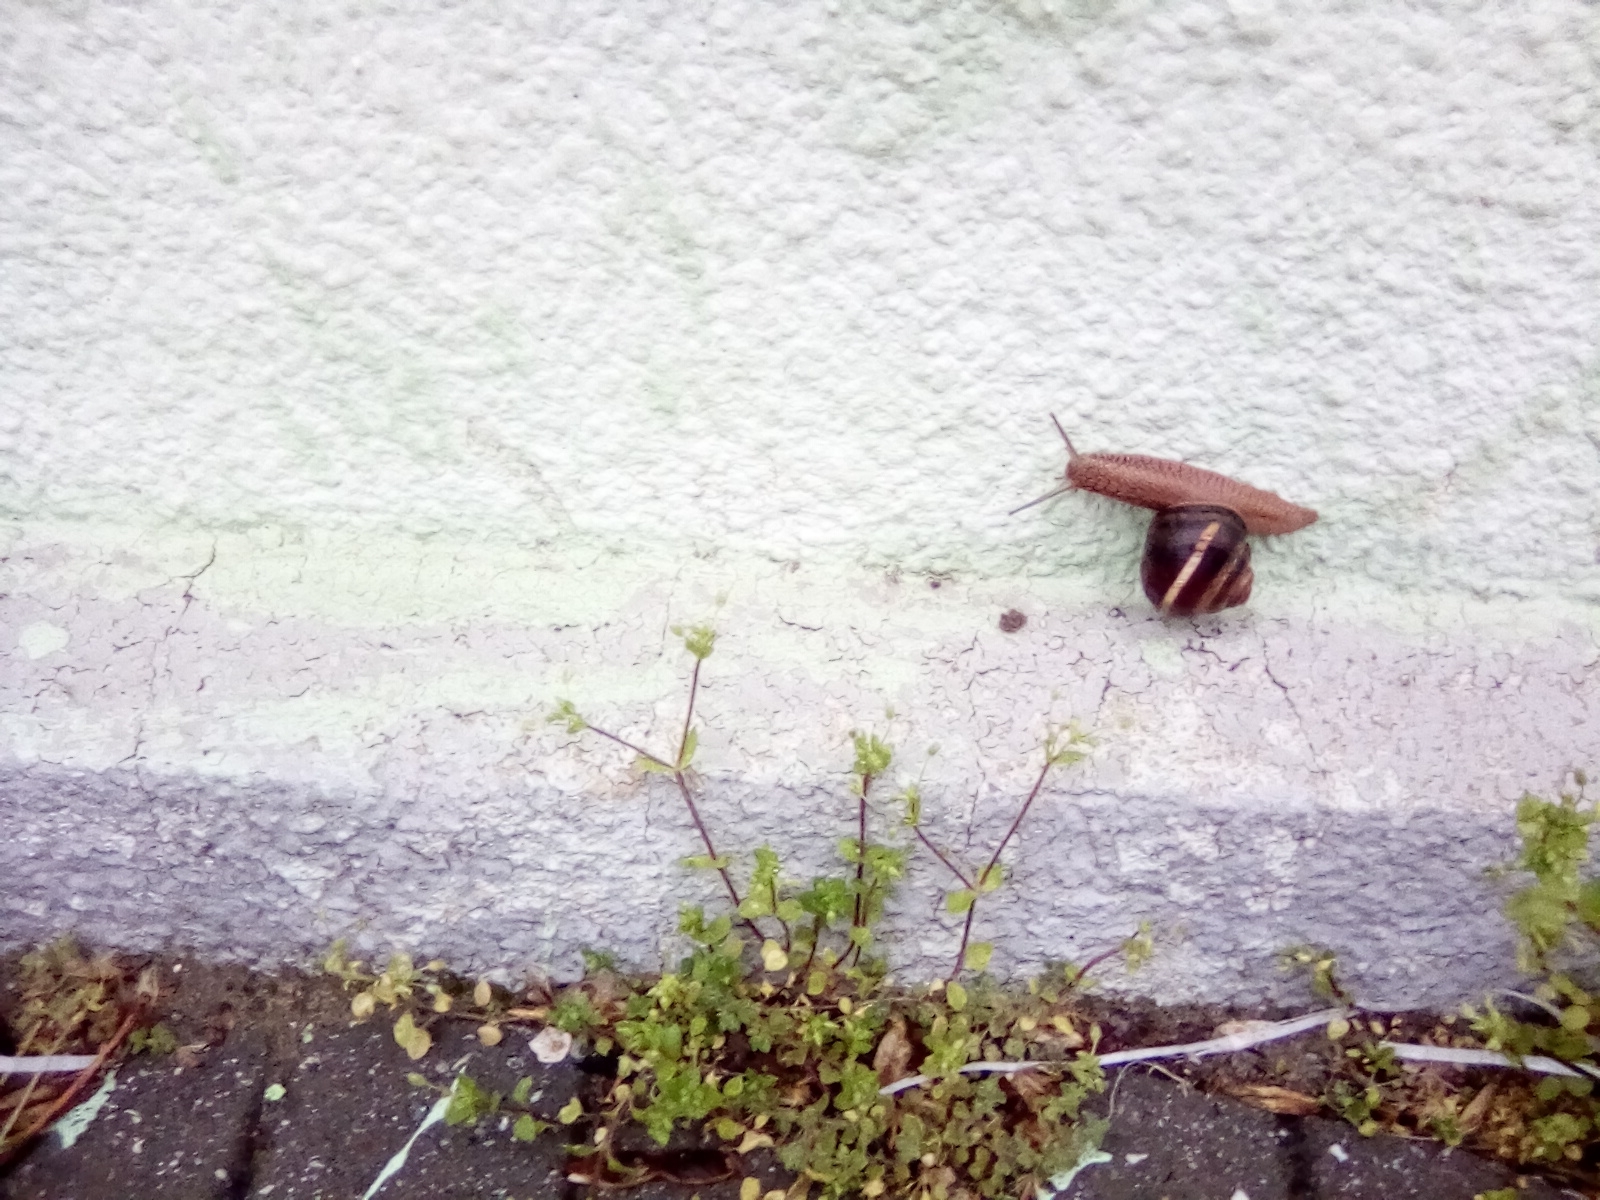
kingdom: Animalia
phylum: Mollusca
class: Gastropoda
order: Stylommatophora
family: Helicidae
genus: Helix
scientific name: Helix lucorum
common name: Turkish snail
